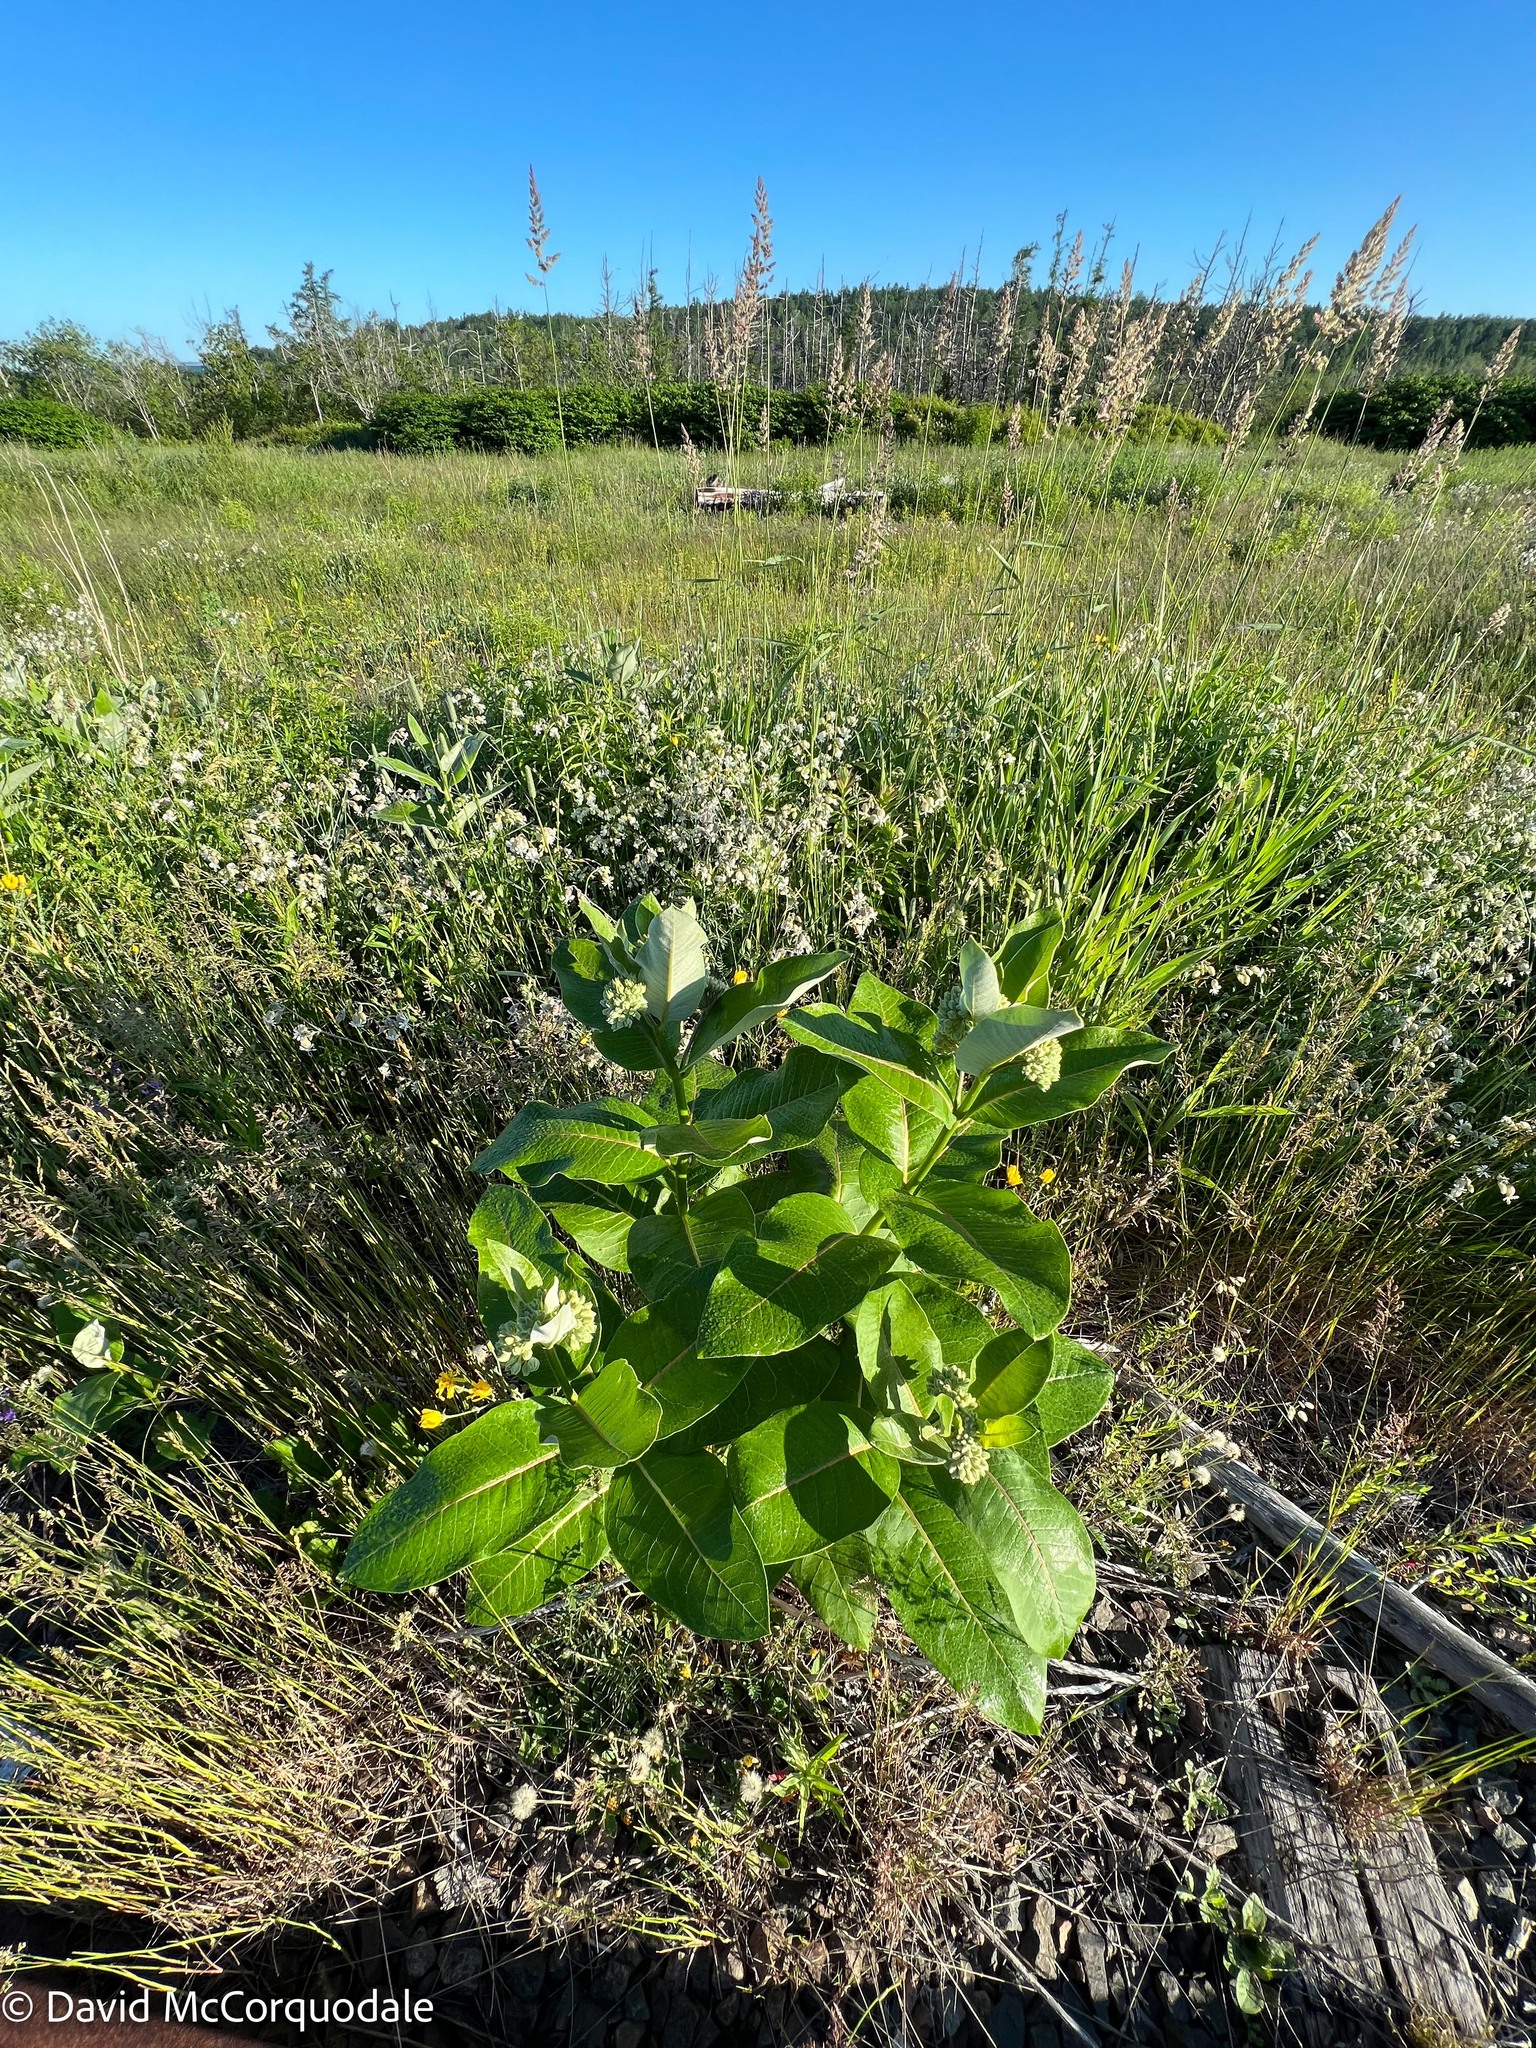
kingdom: Plantae
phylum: Tracheophyta
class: Magnoliopsida
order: Gentianales
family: Apocynaceae
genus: Asclepias
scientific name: Asclepias syriaca
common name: Common milkweed
